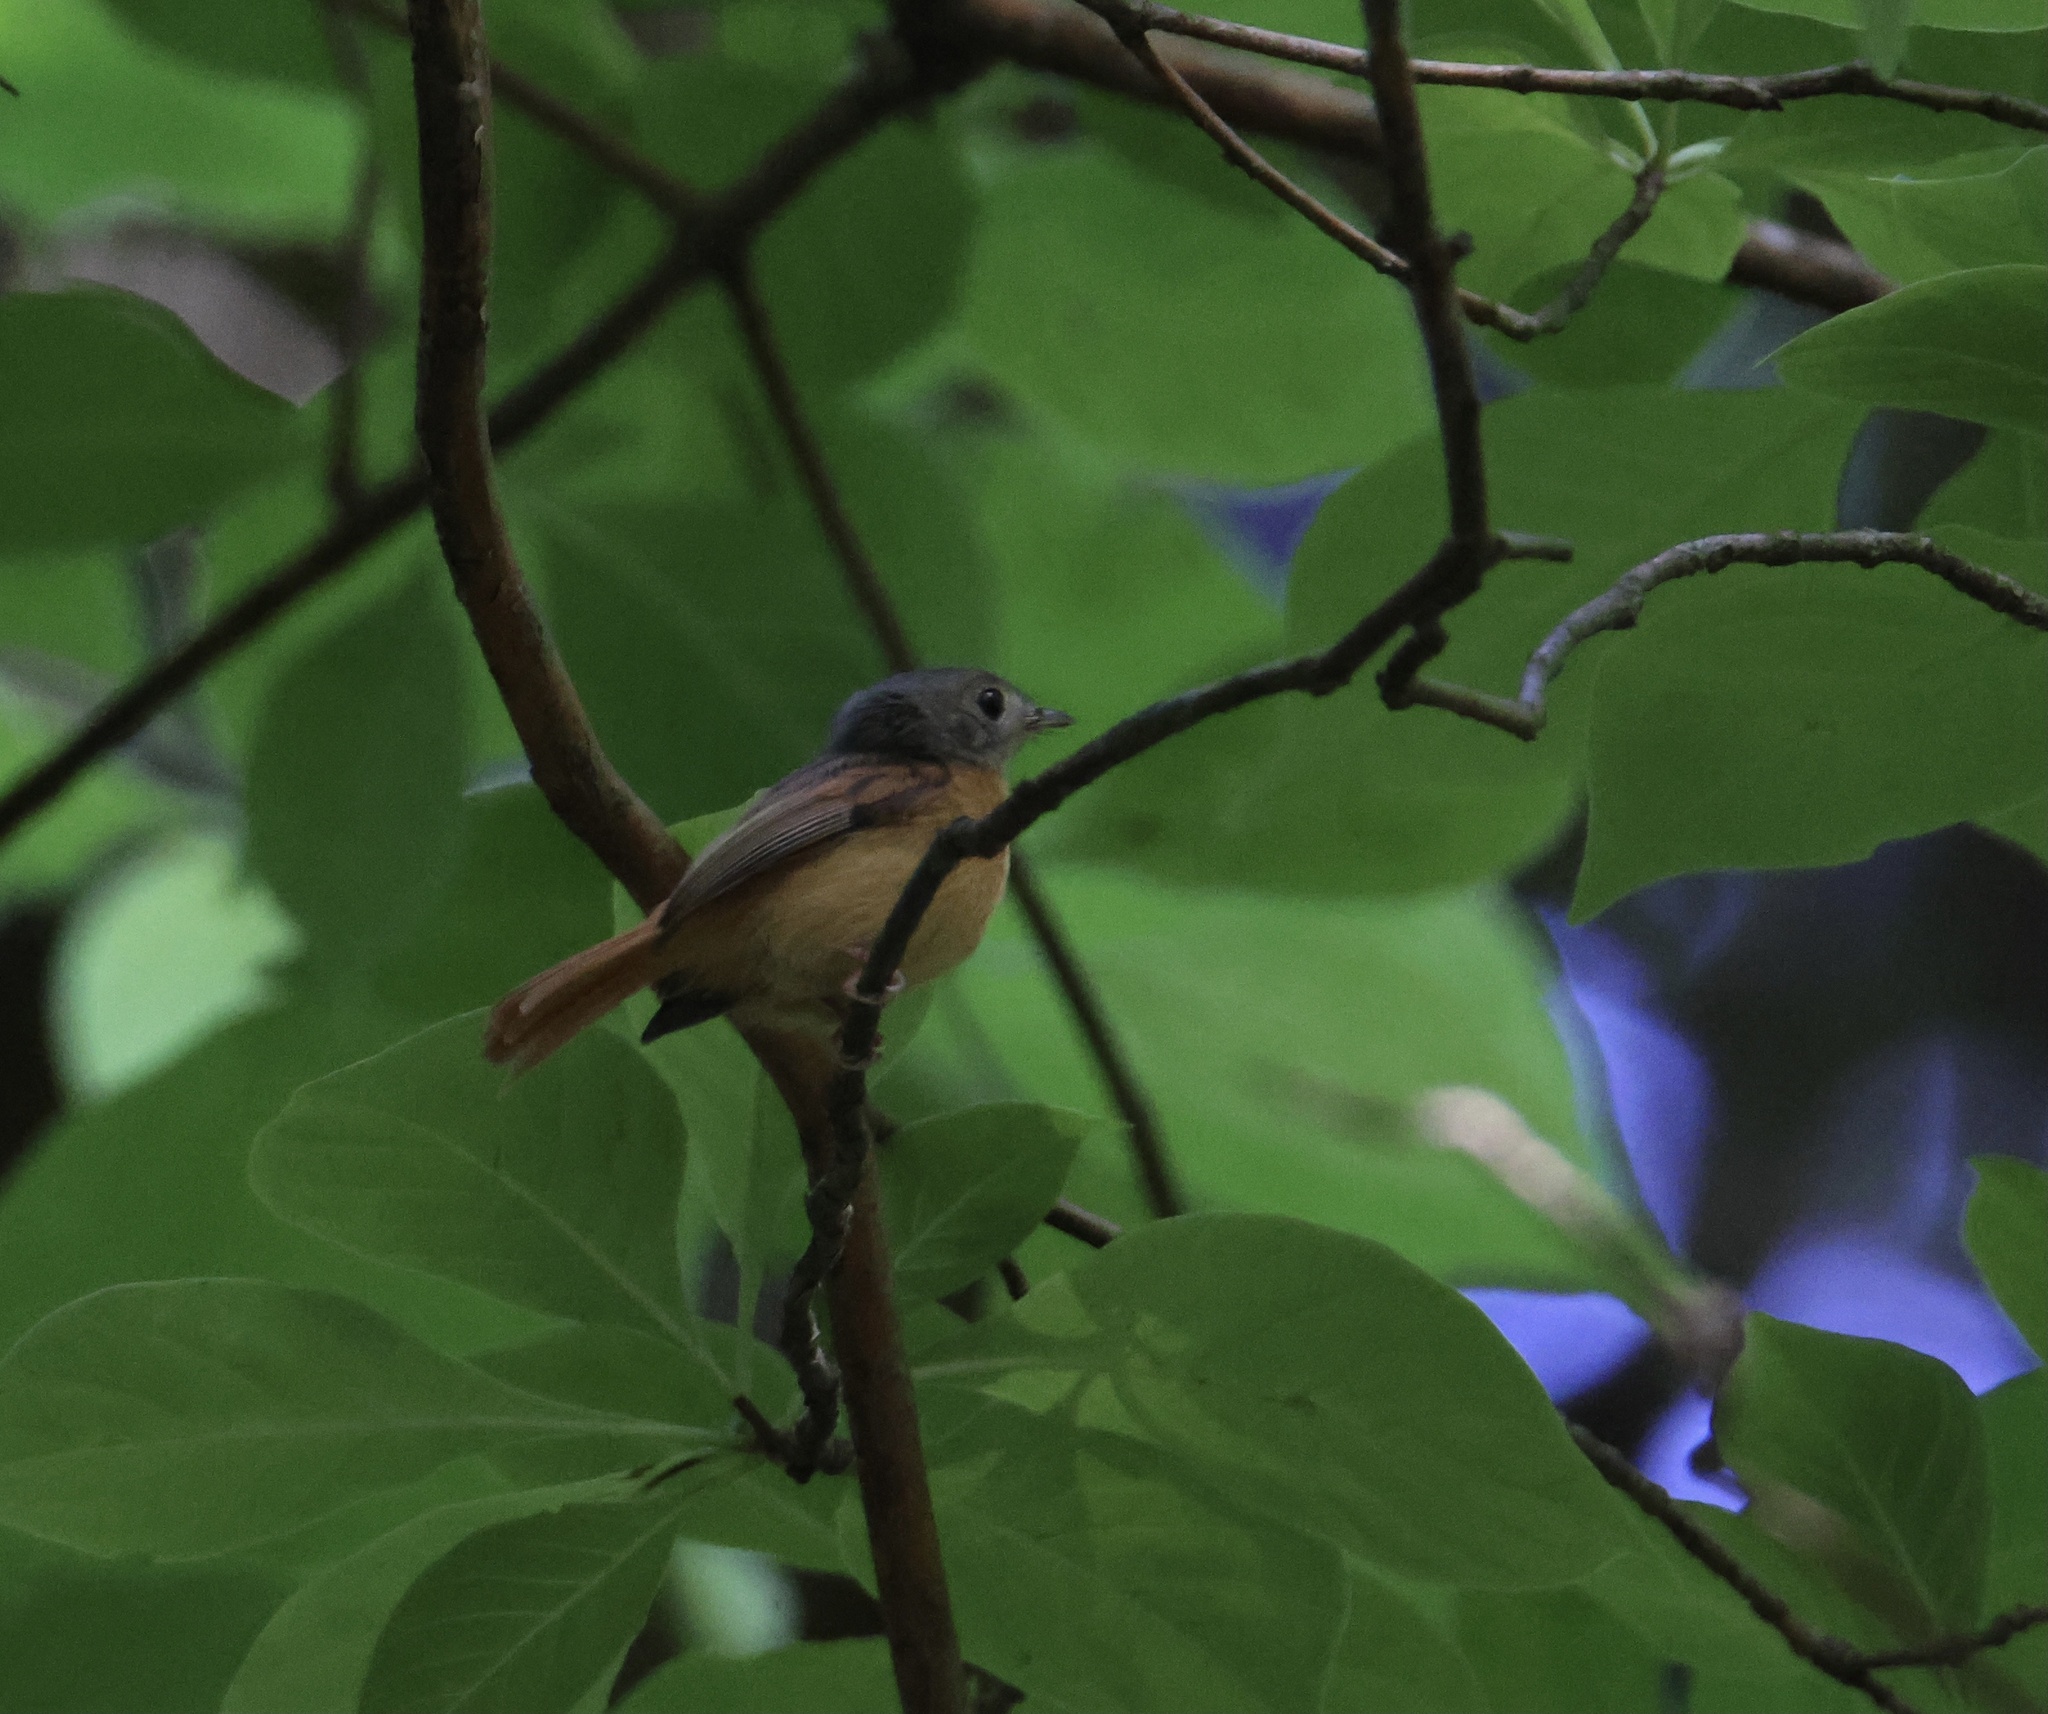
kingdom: Animalia
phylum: Chordata
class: Aves
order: Passeriformes
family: Tyrannidae
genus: Terenotriccus
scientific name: Terenotriccus erythrurus
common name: Ruddy-tailed flycatcher
